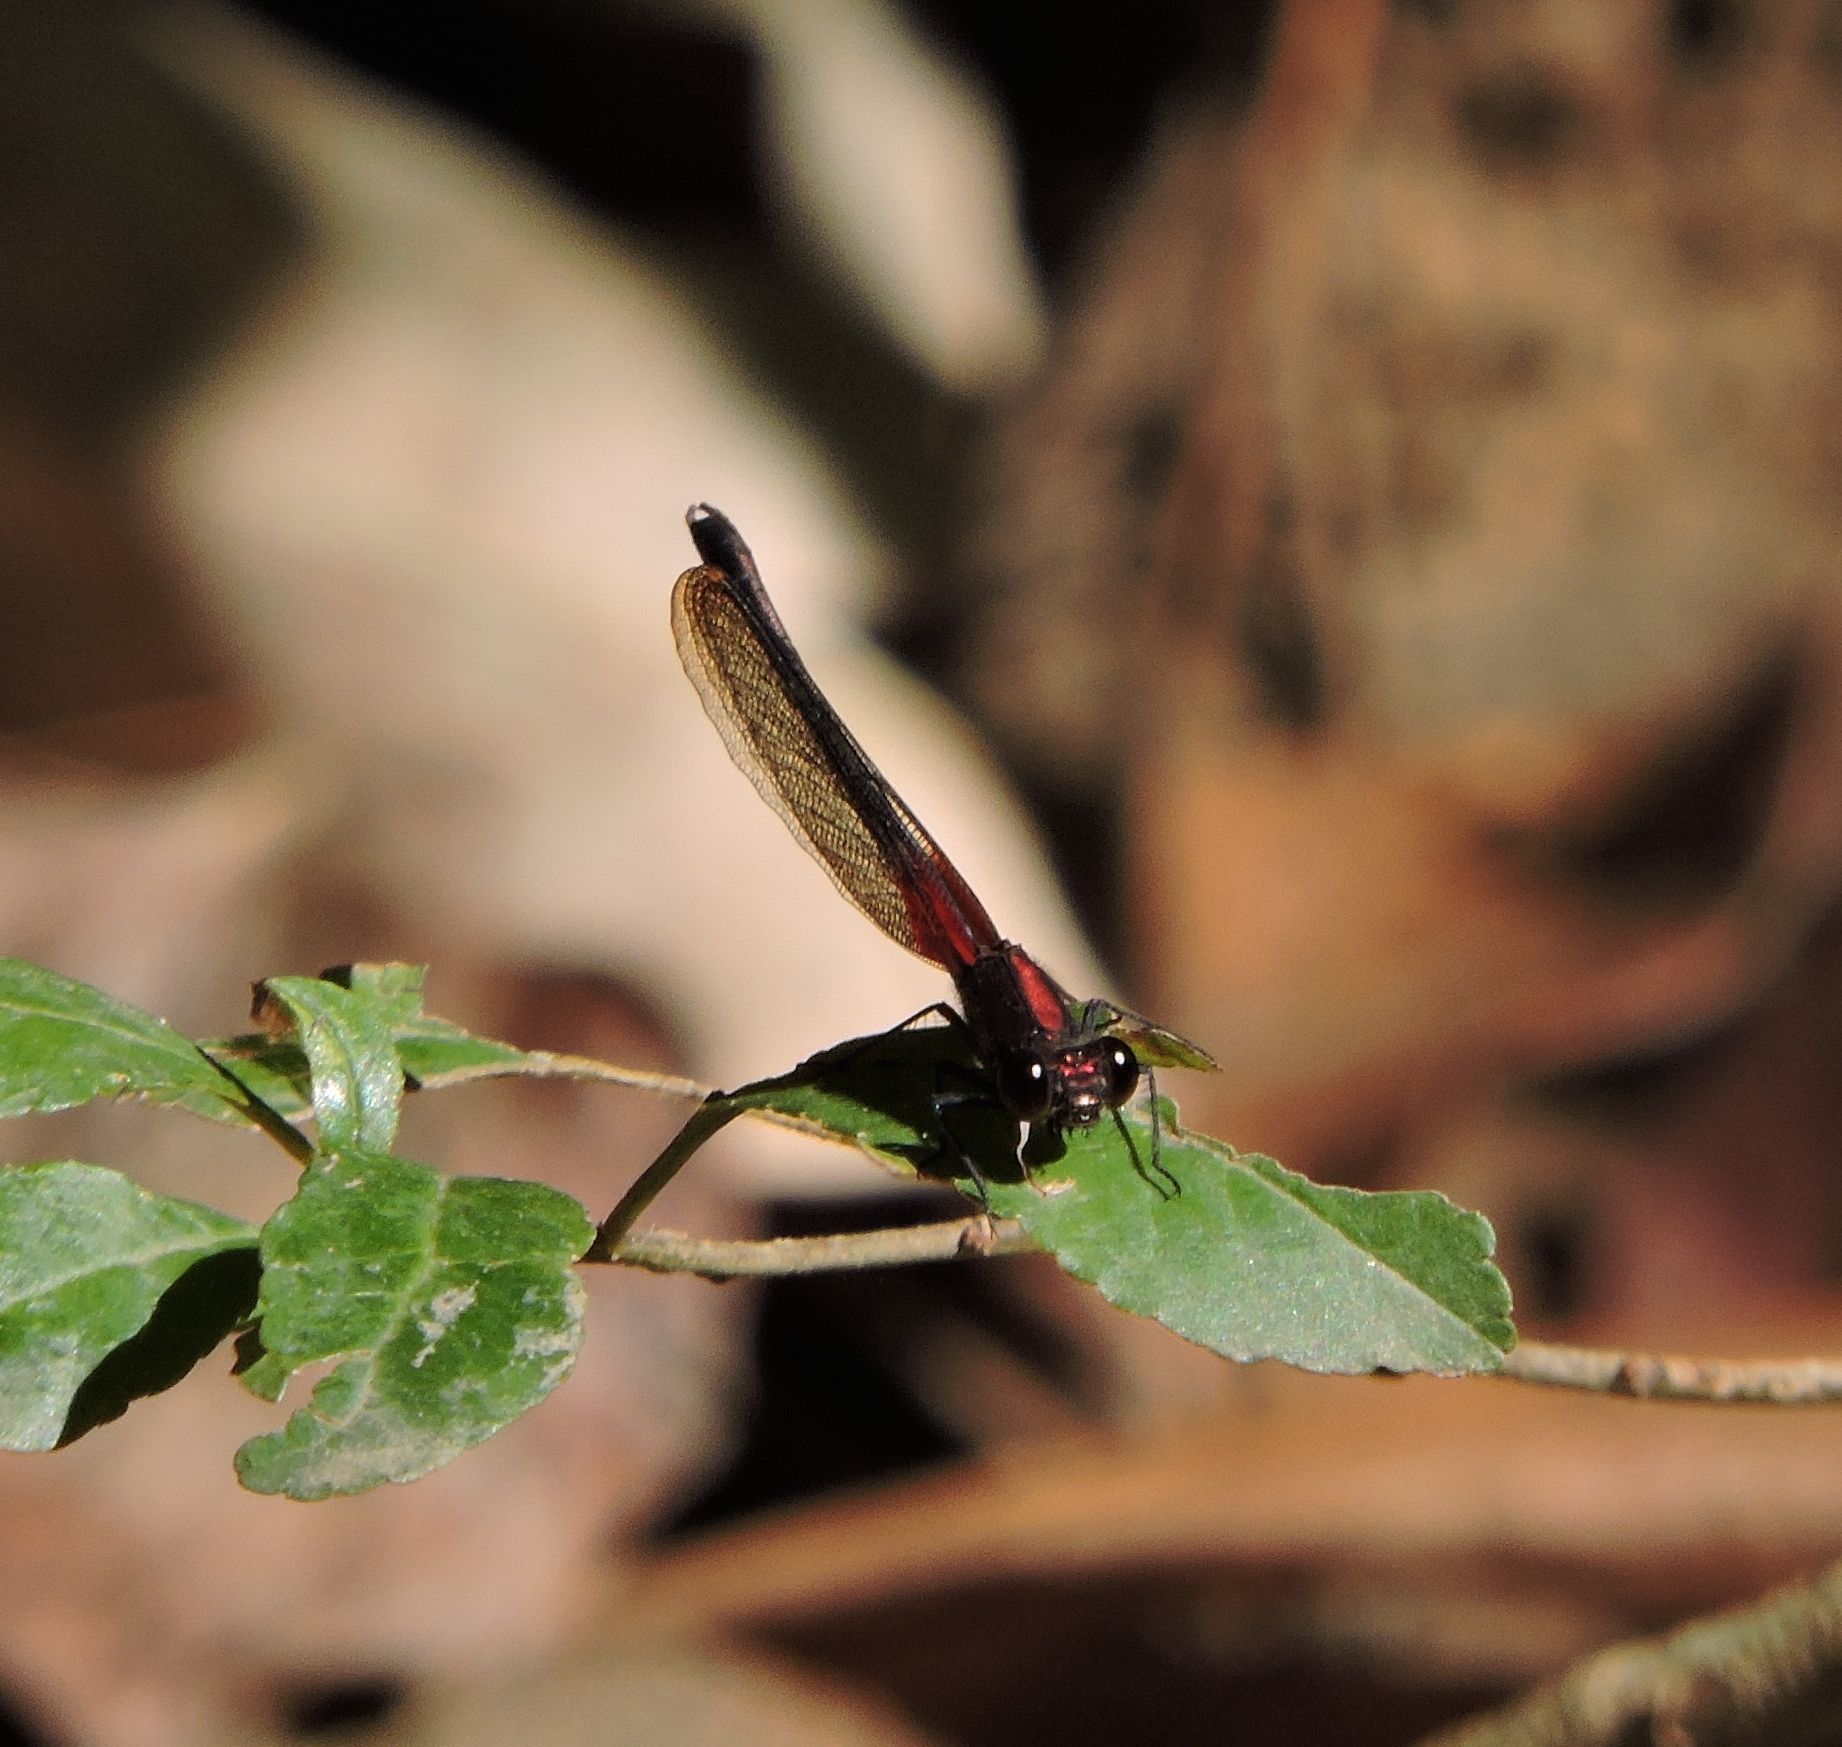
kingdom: Animalia
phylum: Arthropoda
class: Insecta
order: Odonata
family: Calopterygidae
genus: Hetaerina
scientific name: Hetaerina americana
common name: American rubyspot
